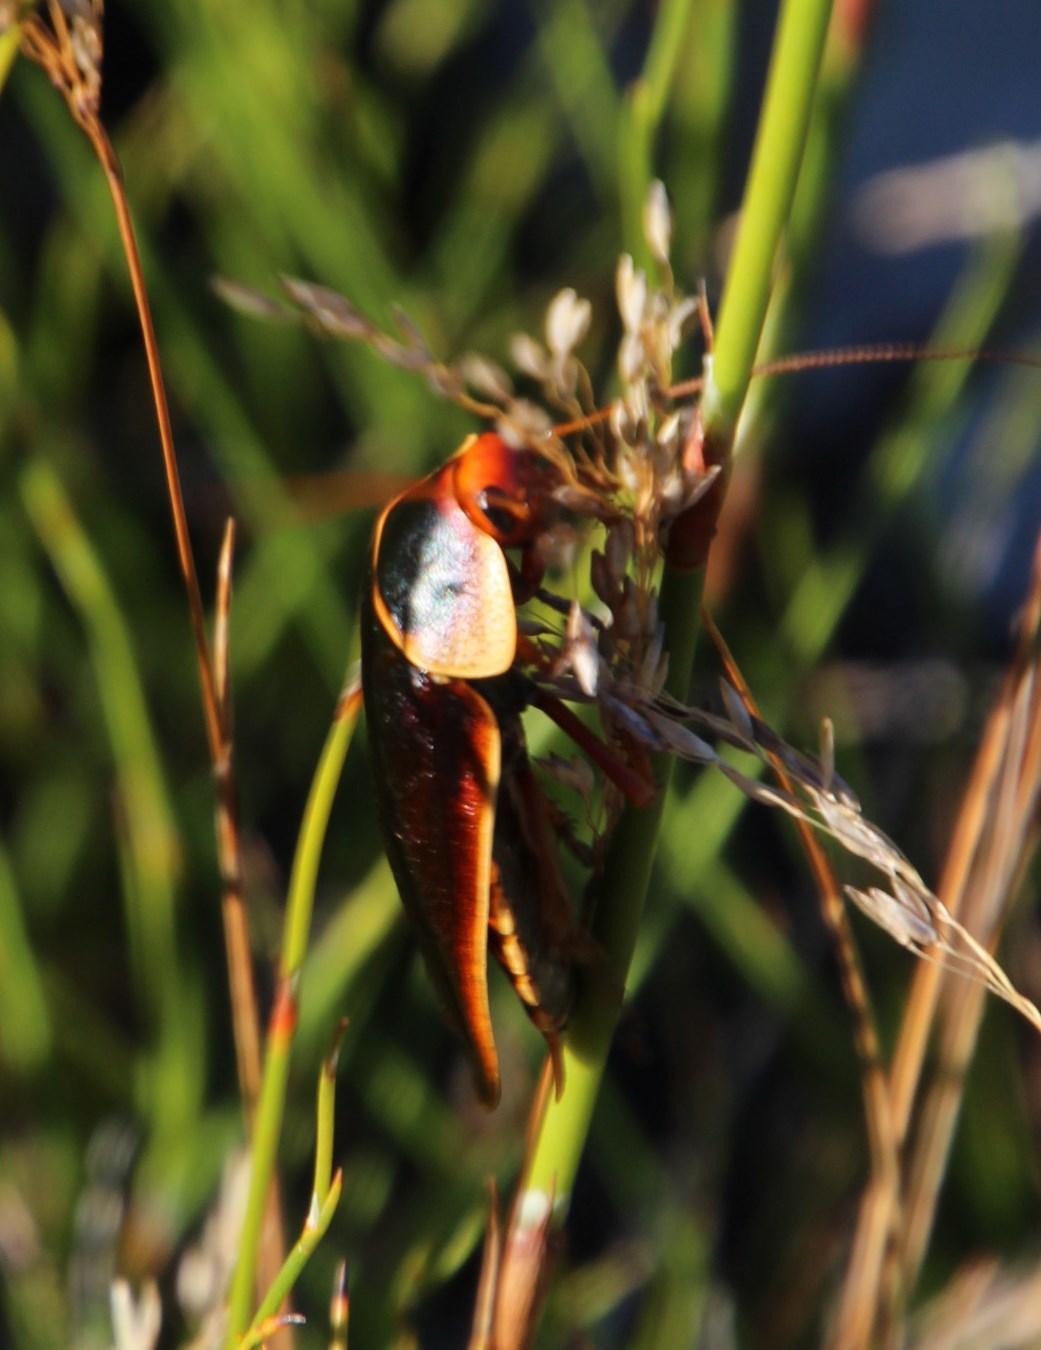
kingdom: Animalia
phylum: Arthropoda
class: Insecta
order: Blattodea
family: Blaberidae
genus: Aptera
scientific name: Aptera fusca
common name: Cape mountain cockroach
